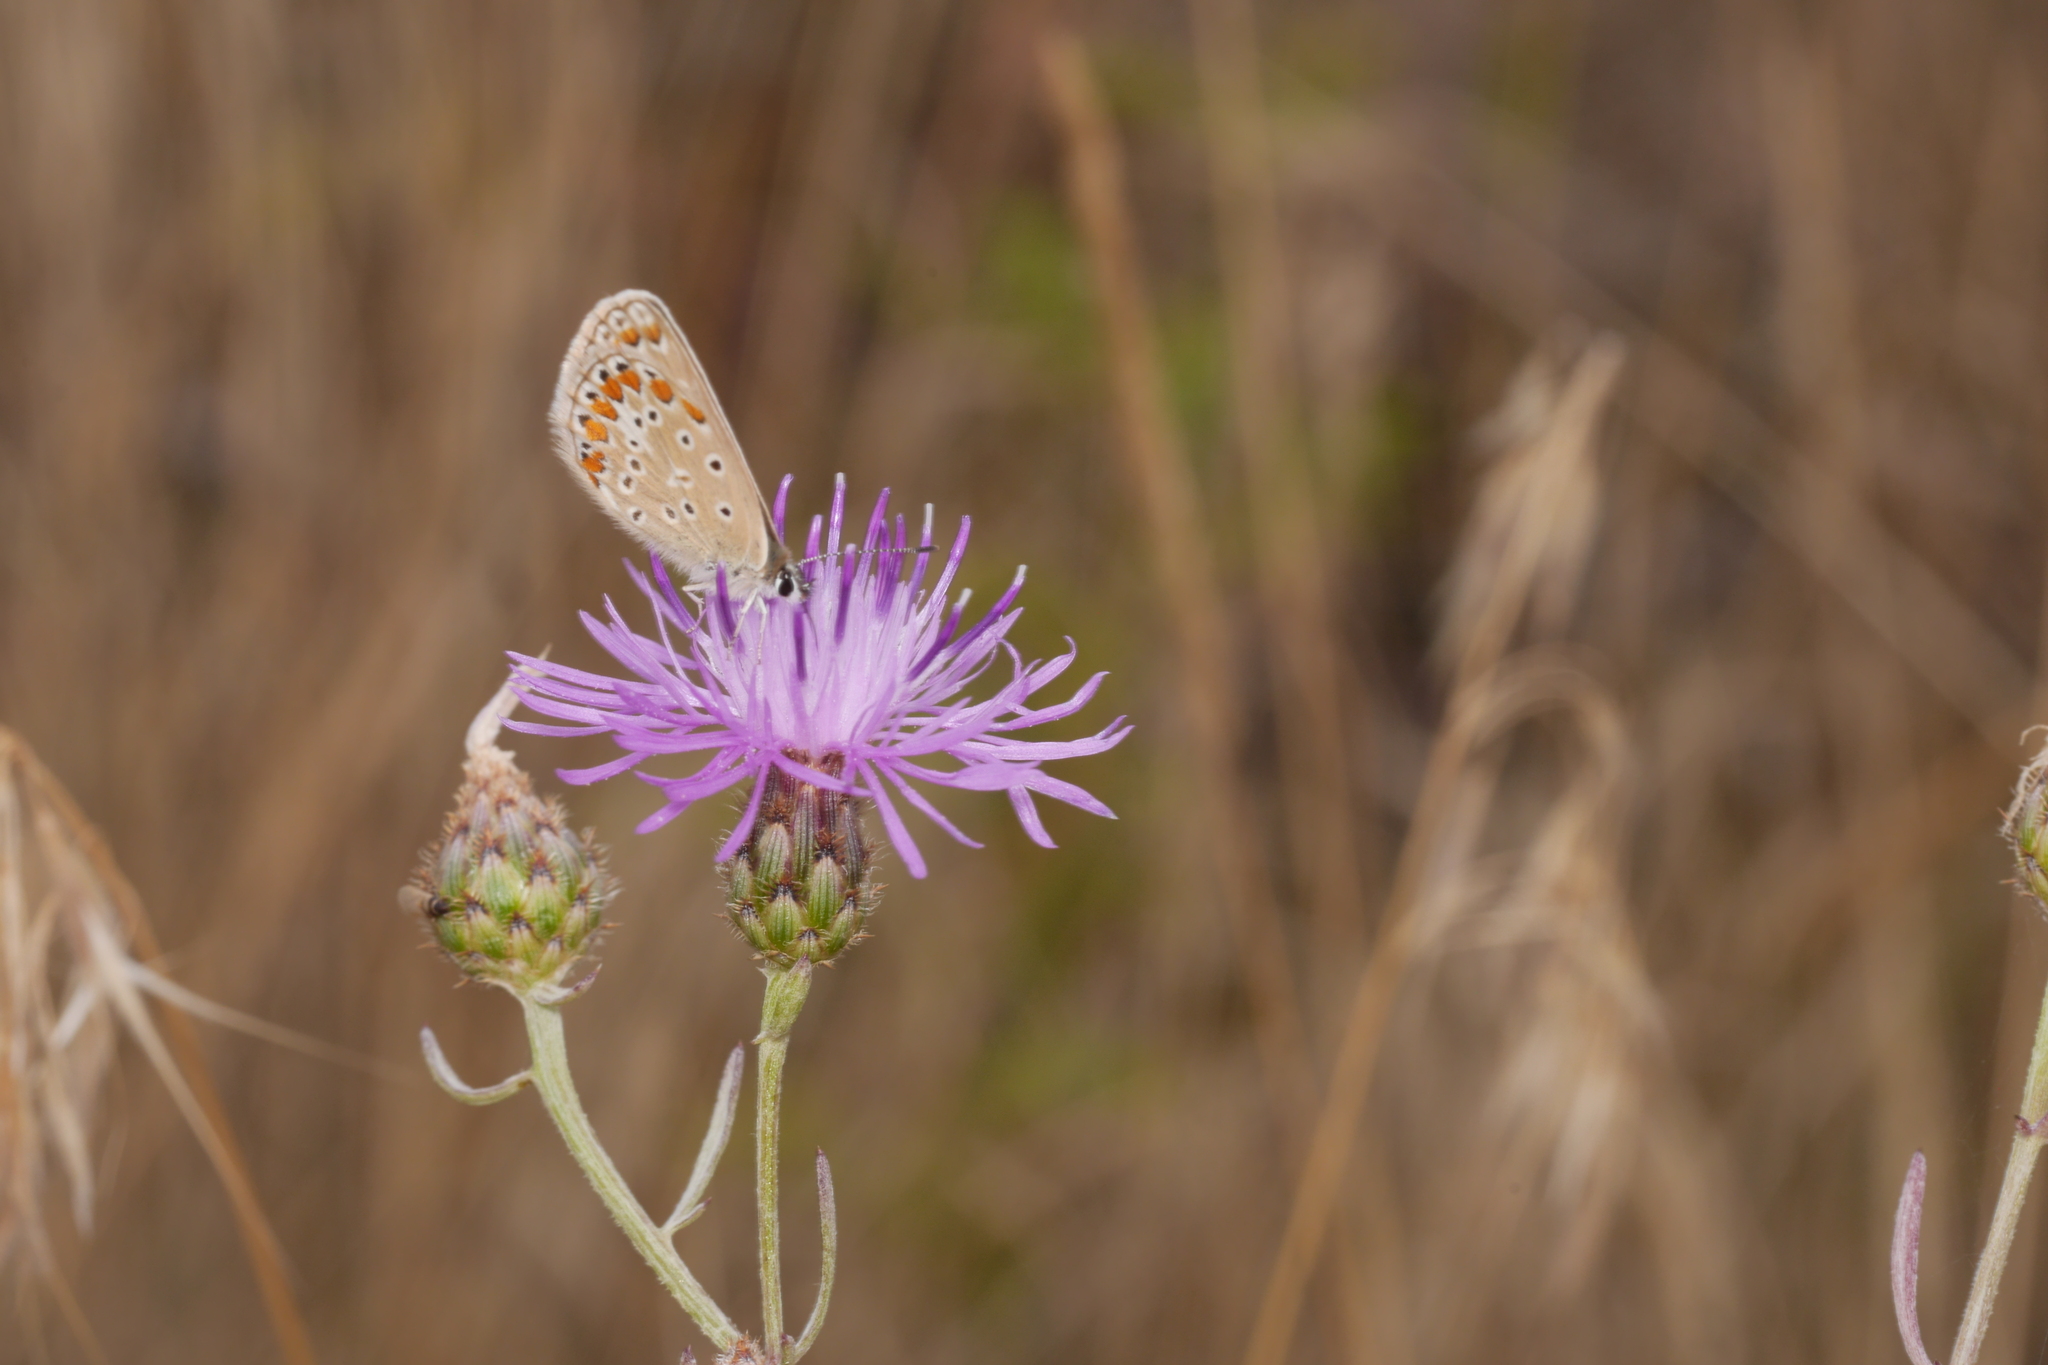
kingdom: Animalia
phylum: Arthropoda
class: Insecta
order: Lepidoptera
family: Lycaenidae
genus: Polyommatus
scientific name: Polyommatus icarus
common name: Common blue
